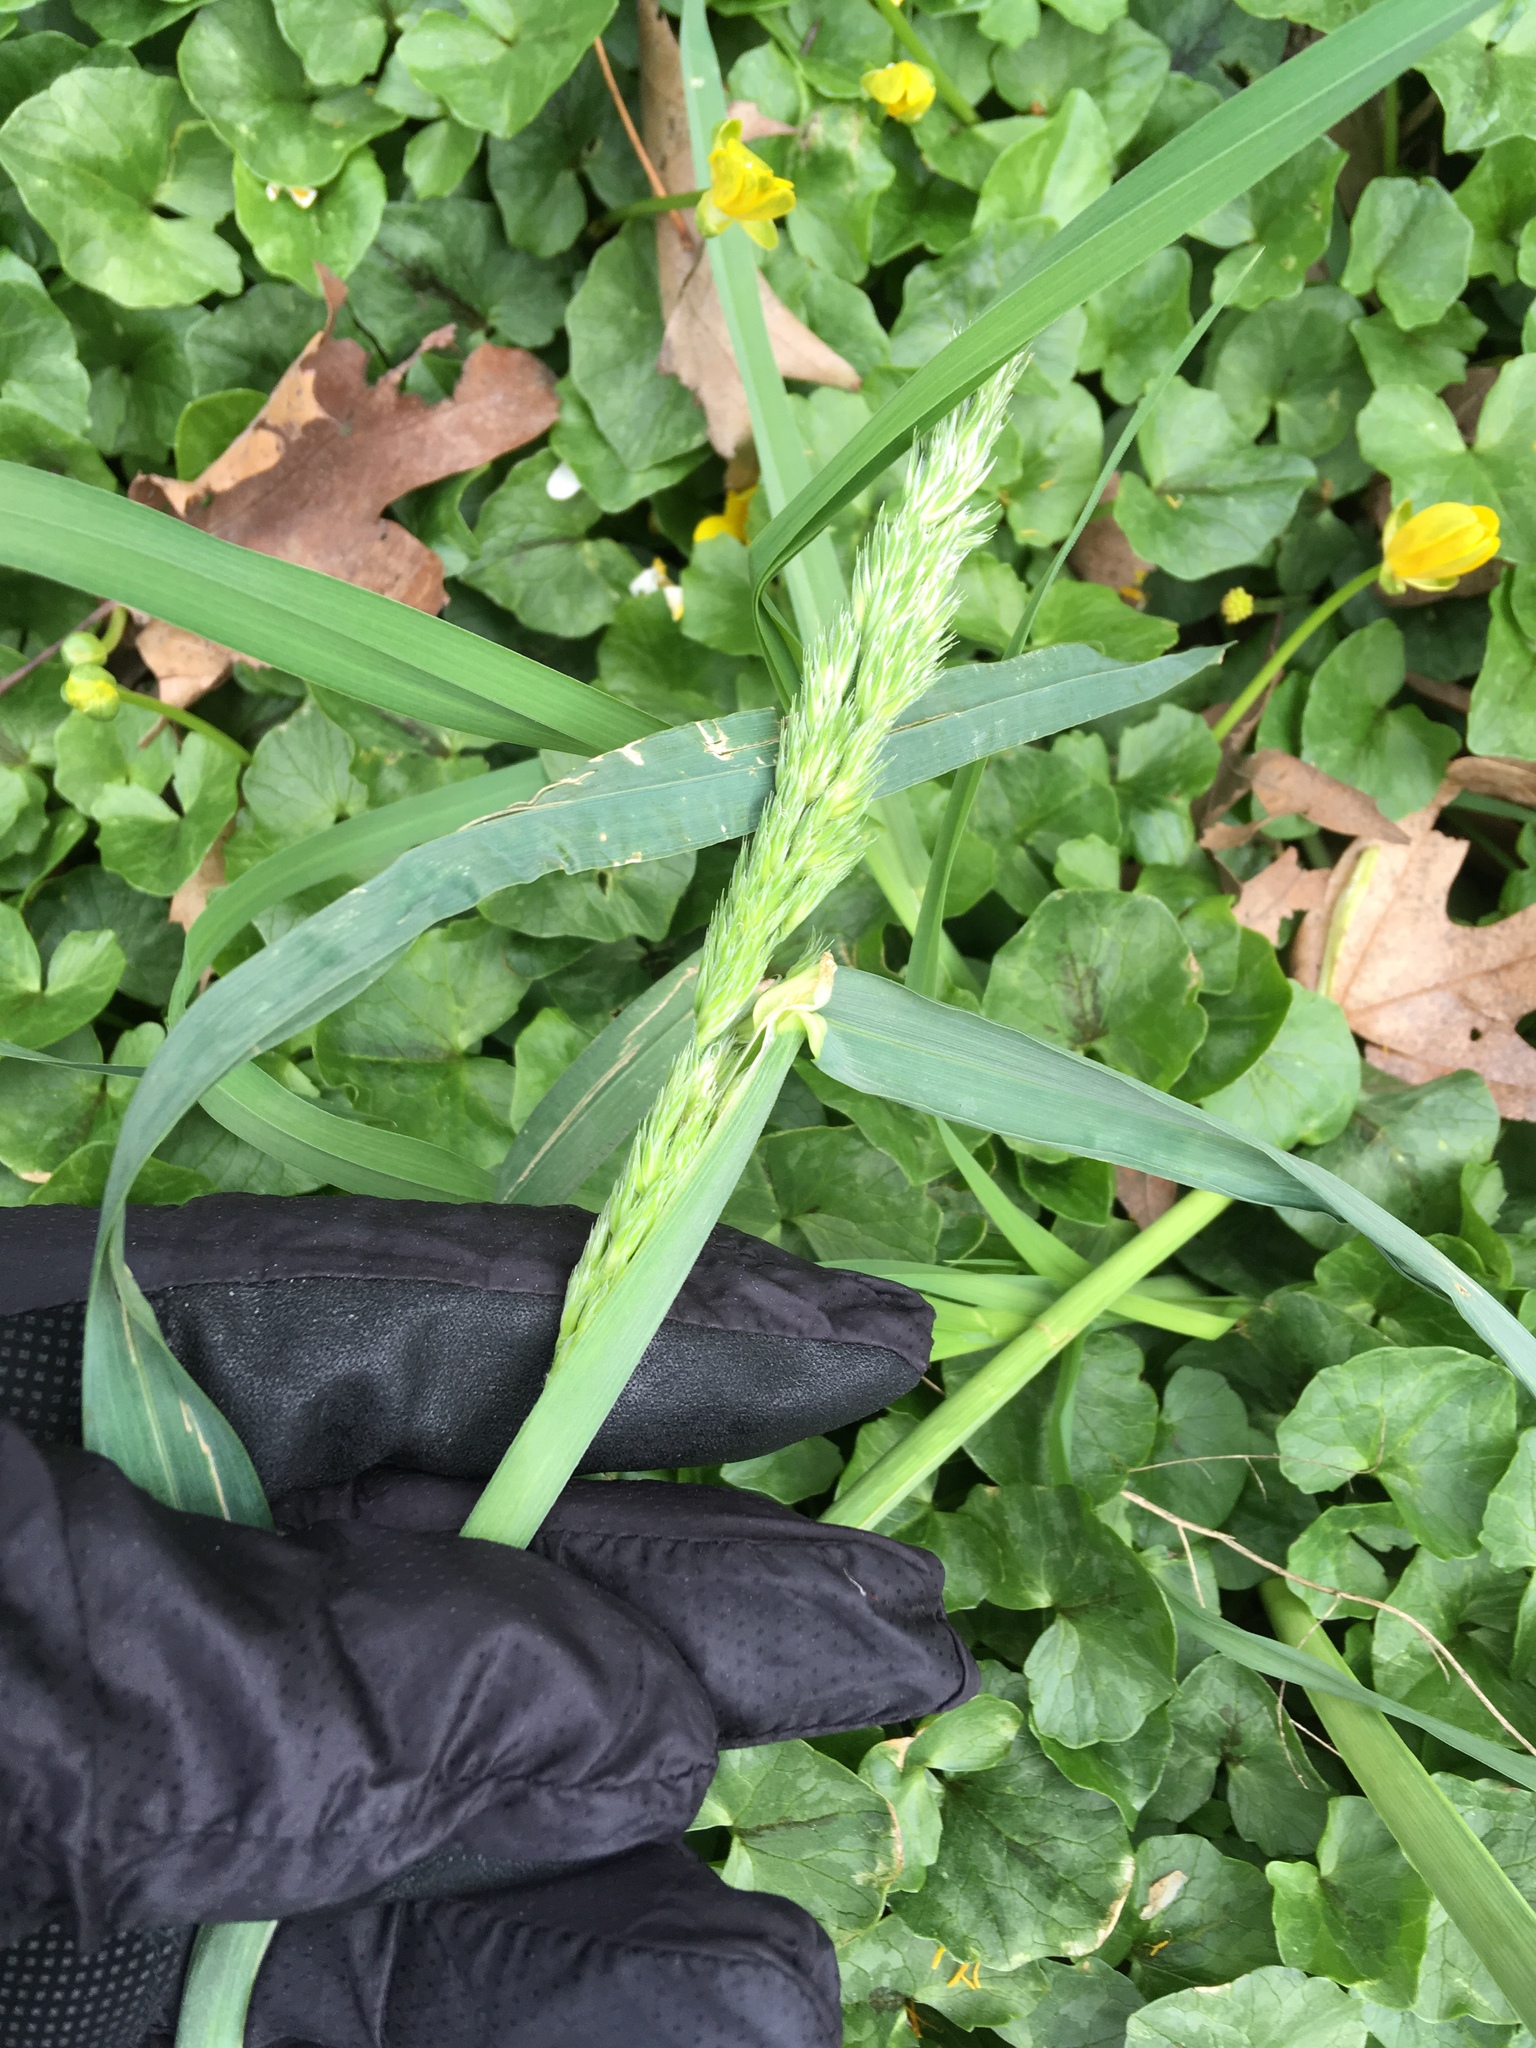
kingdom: Plantae
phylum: Tracheophyta
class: Liliopsida
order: Poales
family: Poaceae
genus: Dactylis
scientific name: Dactylis glomerata
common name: Orchardgrass
